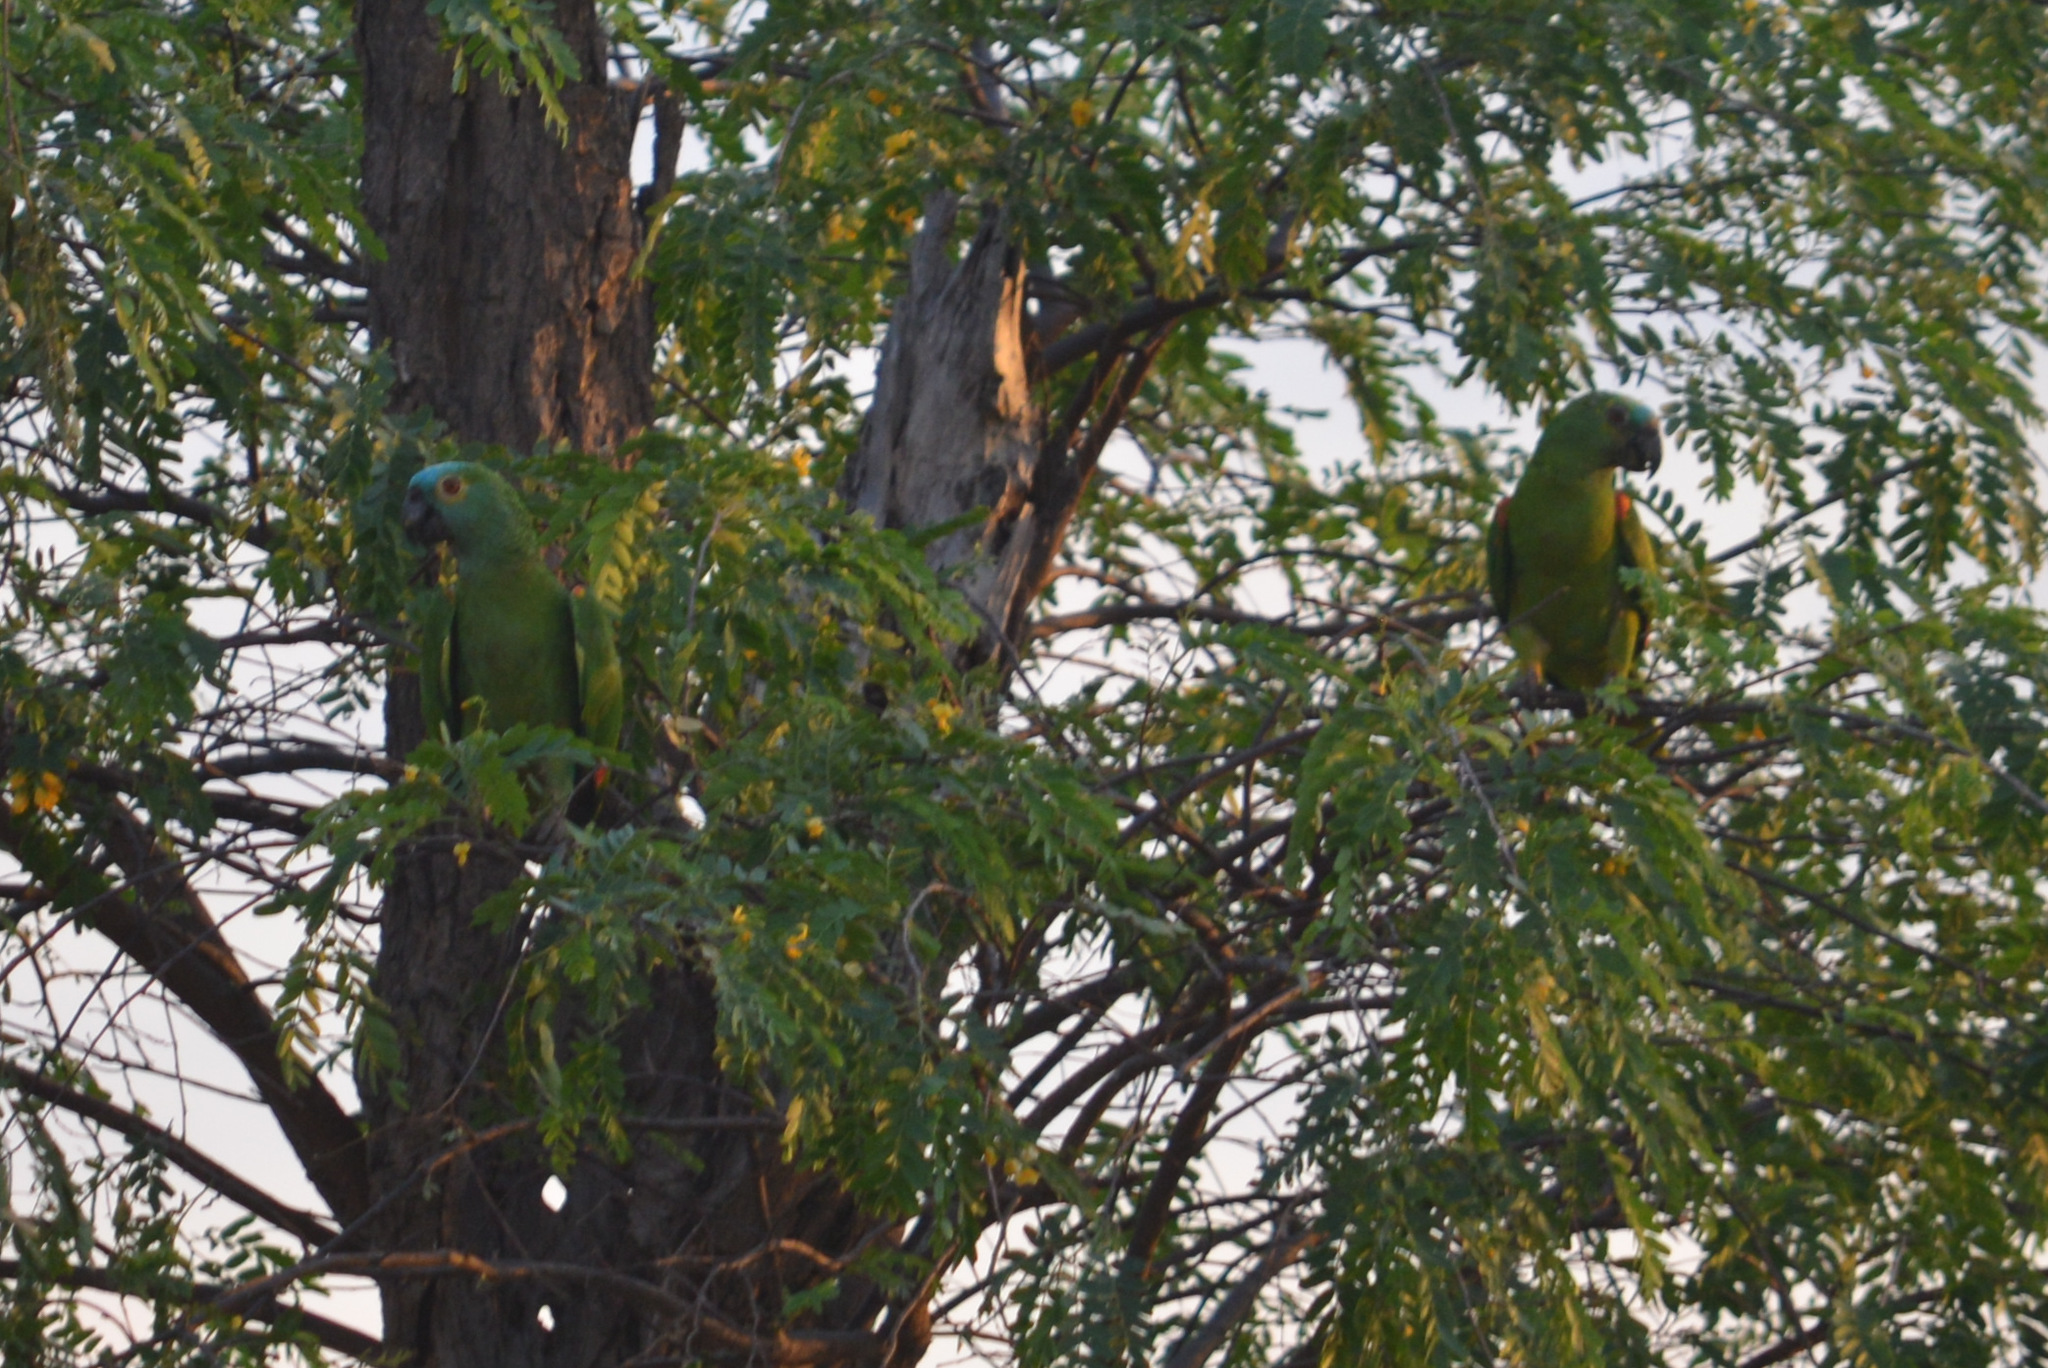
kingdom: Animalia
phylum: Chordata
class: Aves
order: Psittaciformes
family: Psittacidae
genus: Amazona
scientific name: Amazona aestiva
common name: Turquoise-fronted amazon
